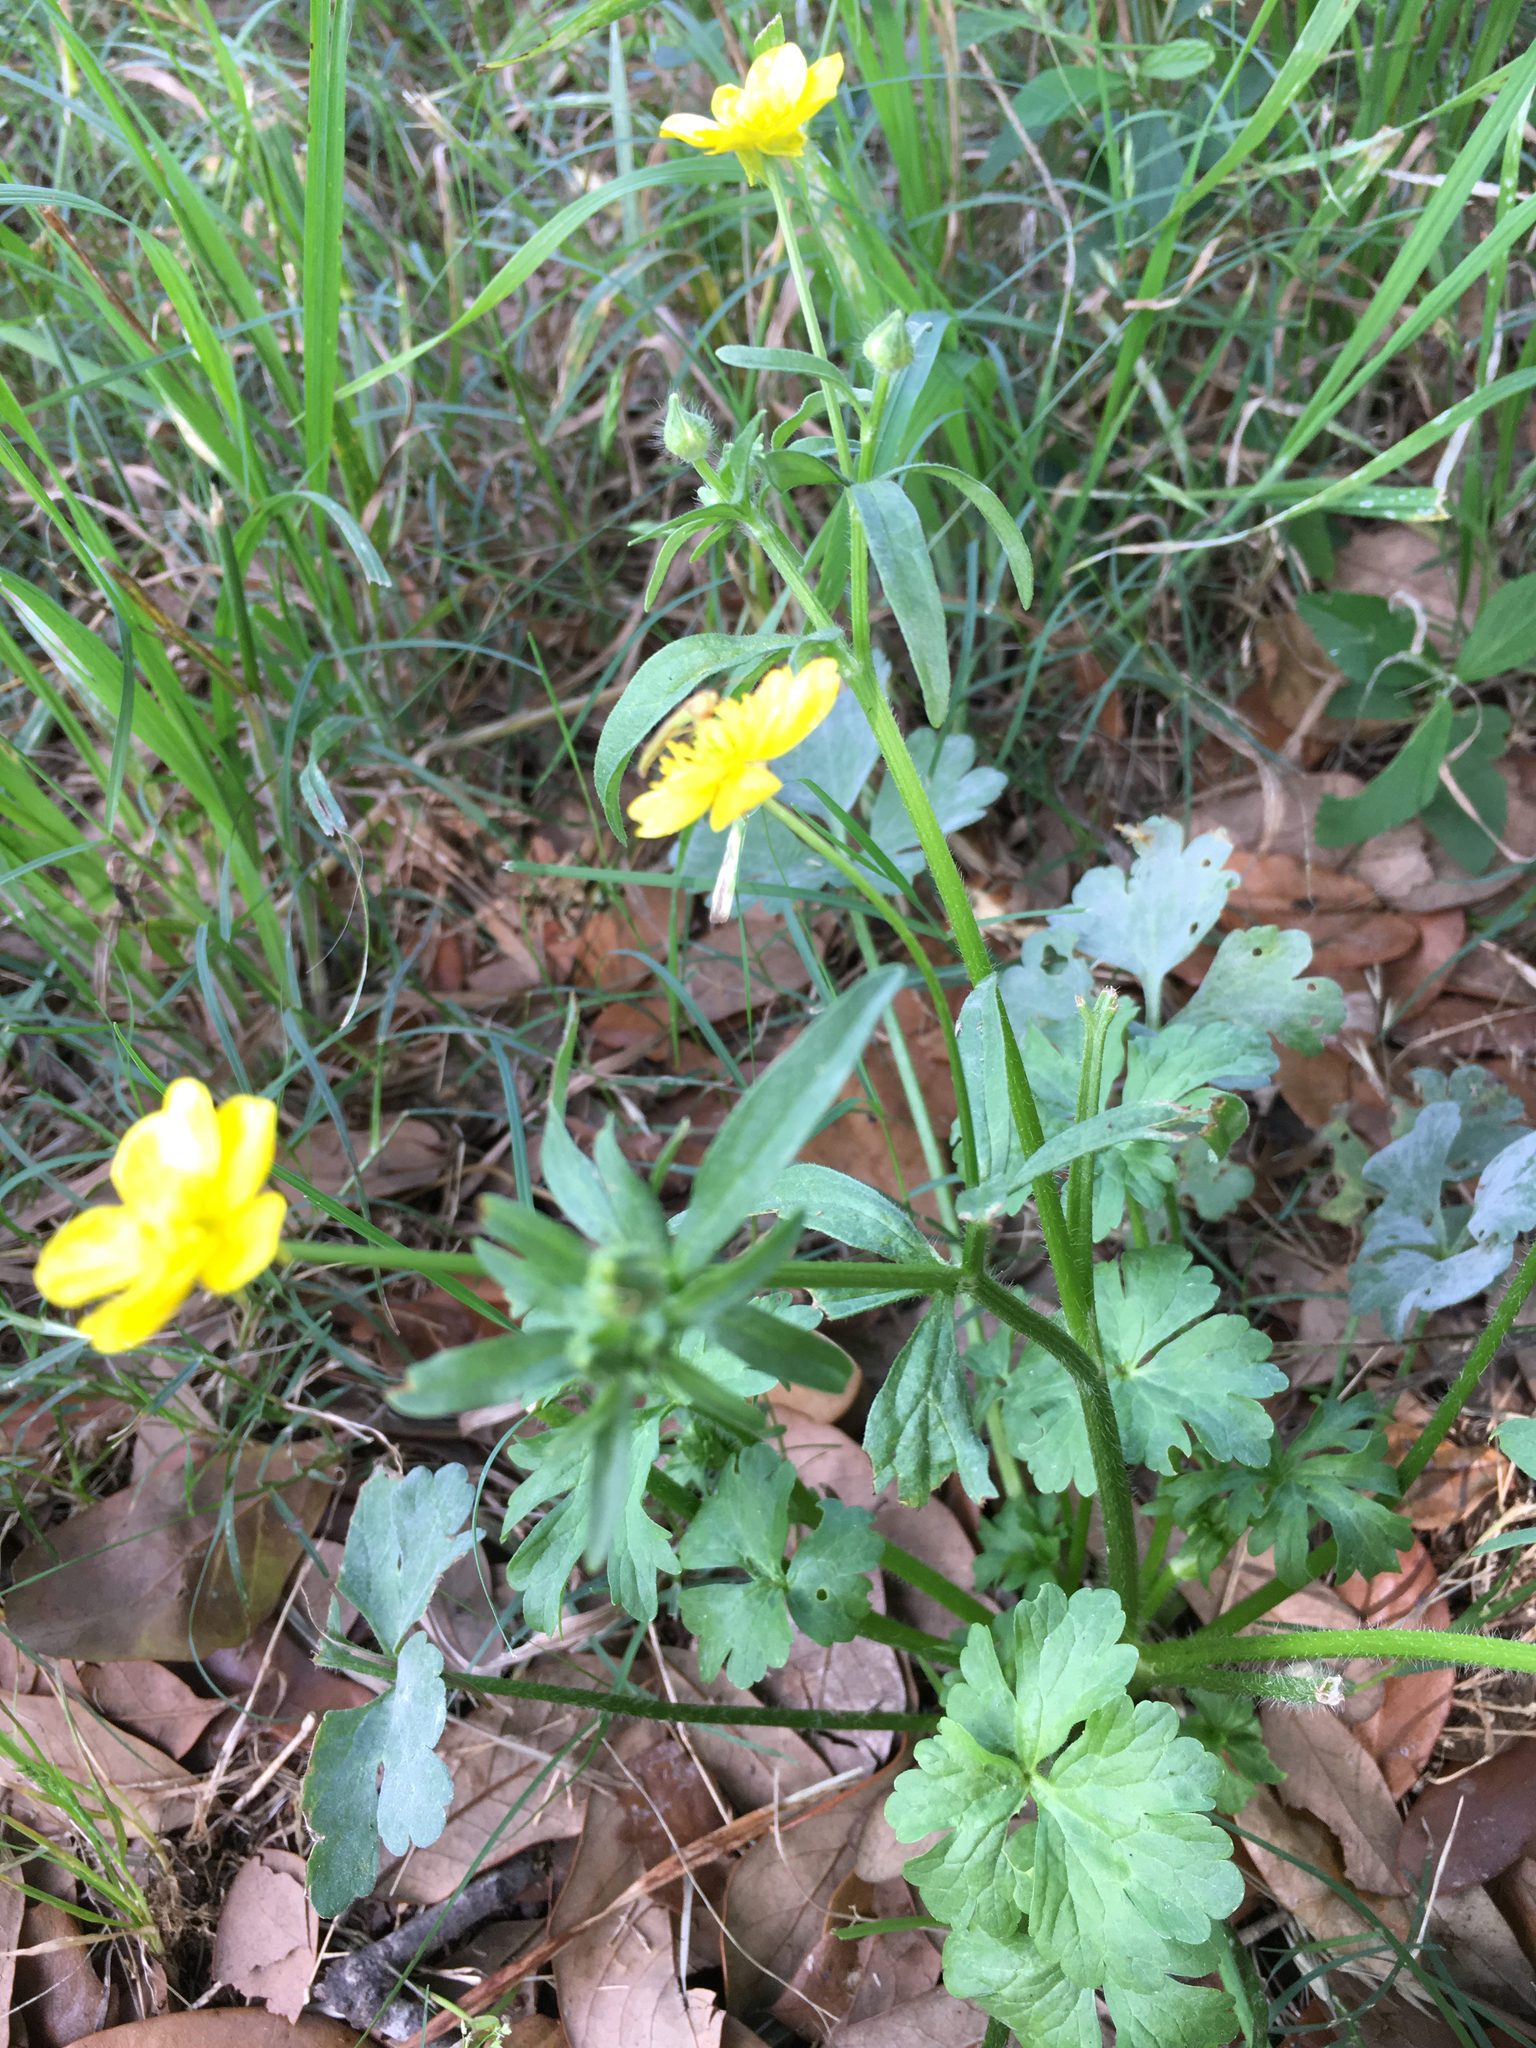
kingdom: Plantae
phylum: Tracheophyta
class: Magnoliopsida
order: Ranunculales
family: Ranunculaceae
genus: Ranunculus
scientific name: Ranunculus sardous
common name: Hairy buttercup
